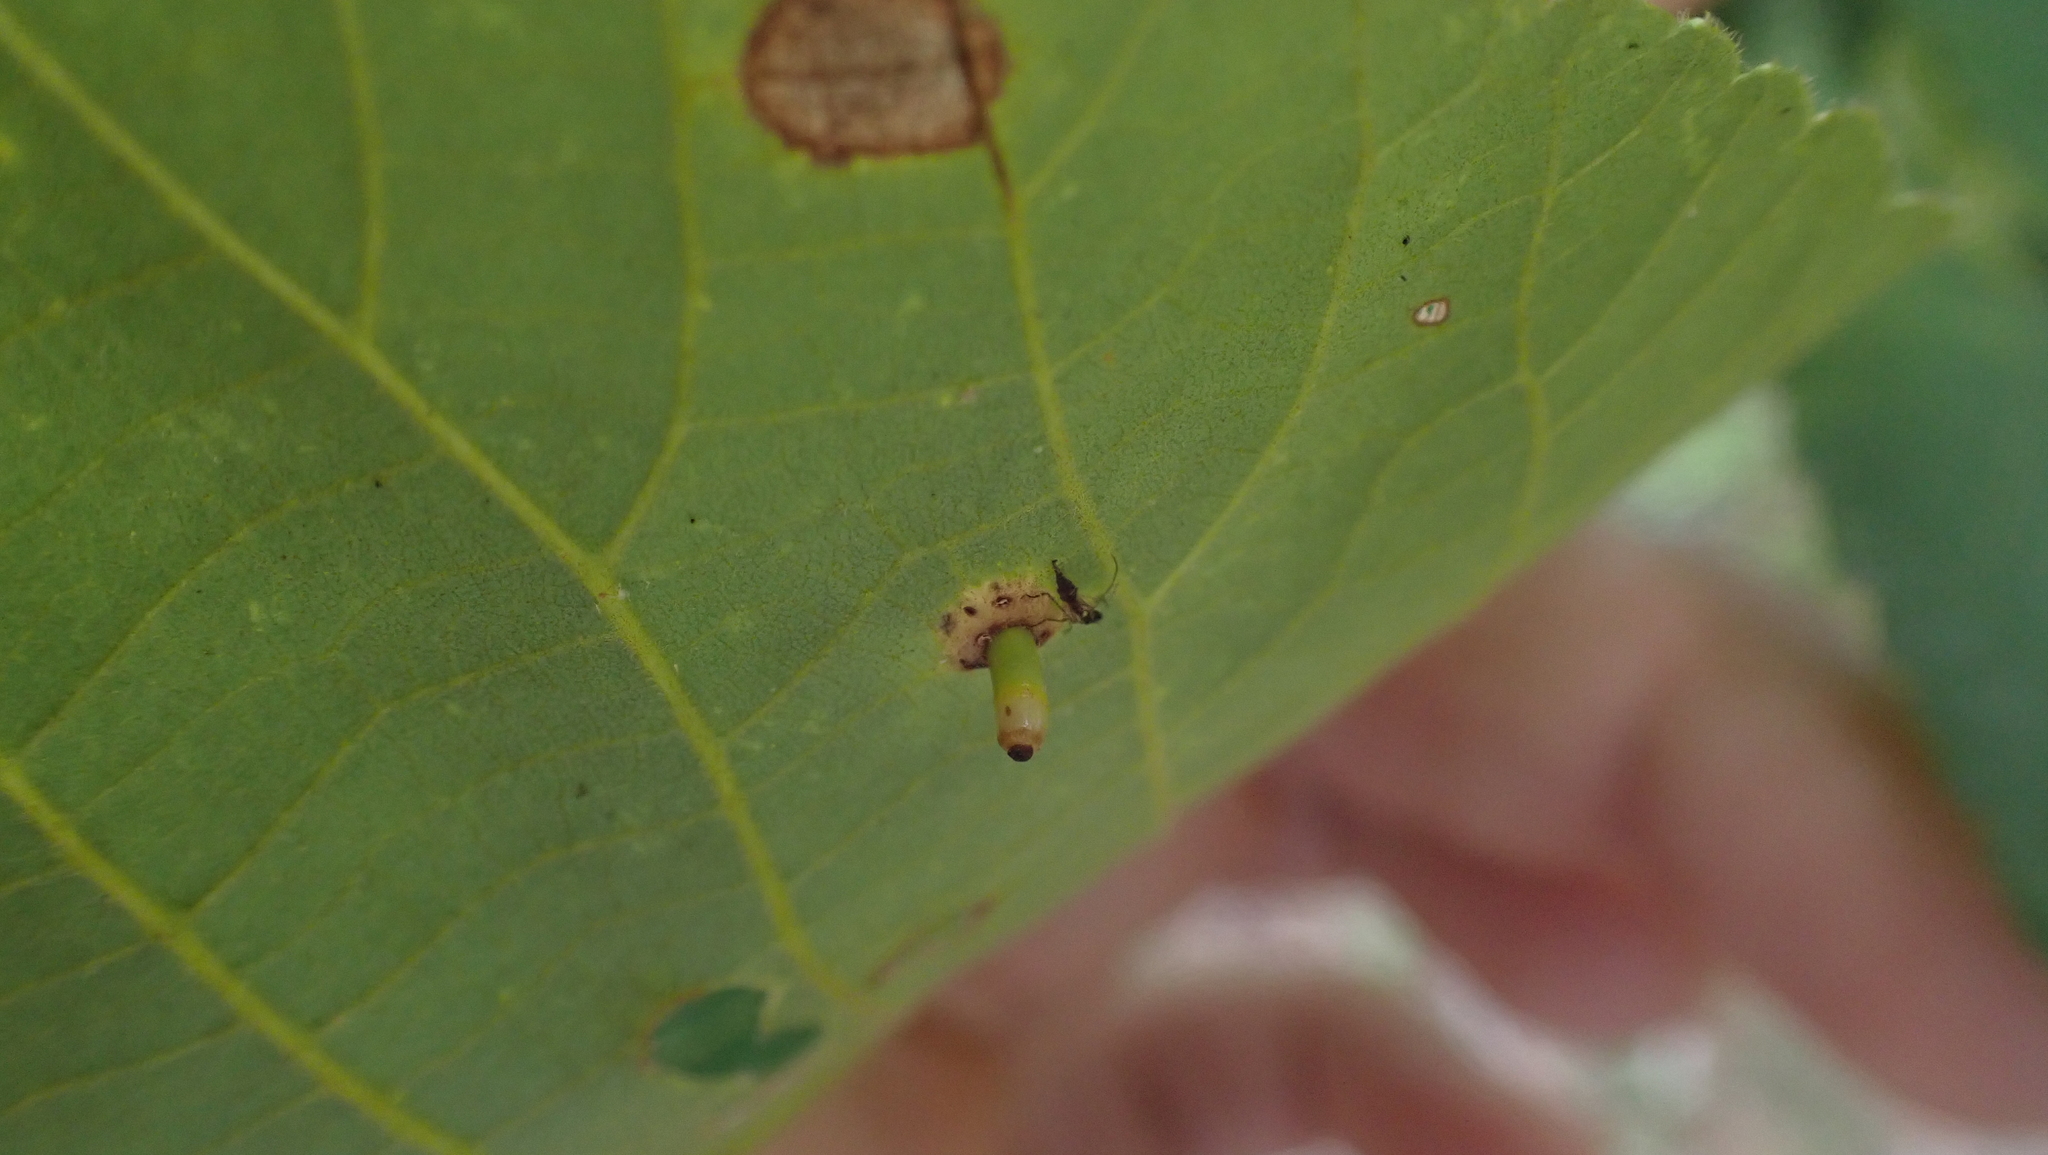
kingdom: Animalia
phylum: Arthropoda
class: Insecta
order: Diptera
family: Cecidomyiidae
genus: Caryomyia
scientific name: Caryomyia tubicola
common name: Hickory bullet gall midge
